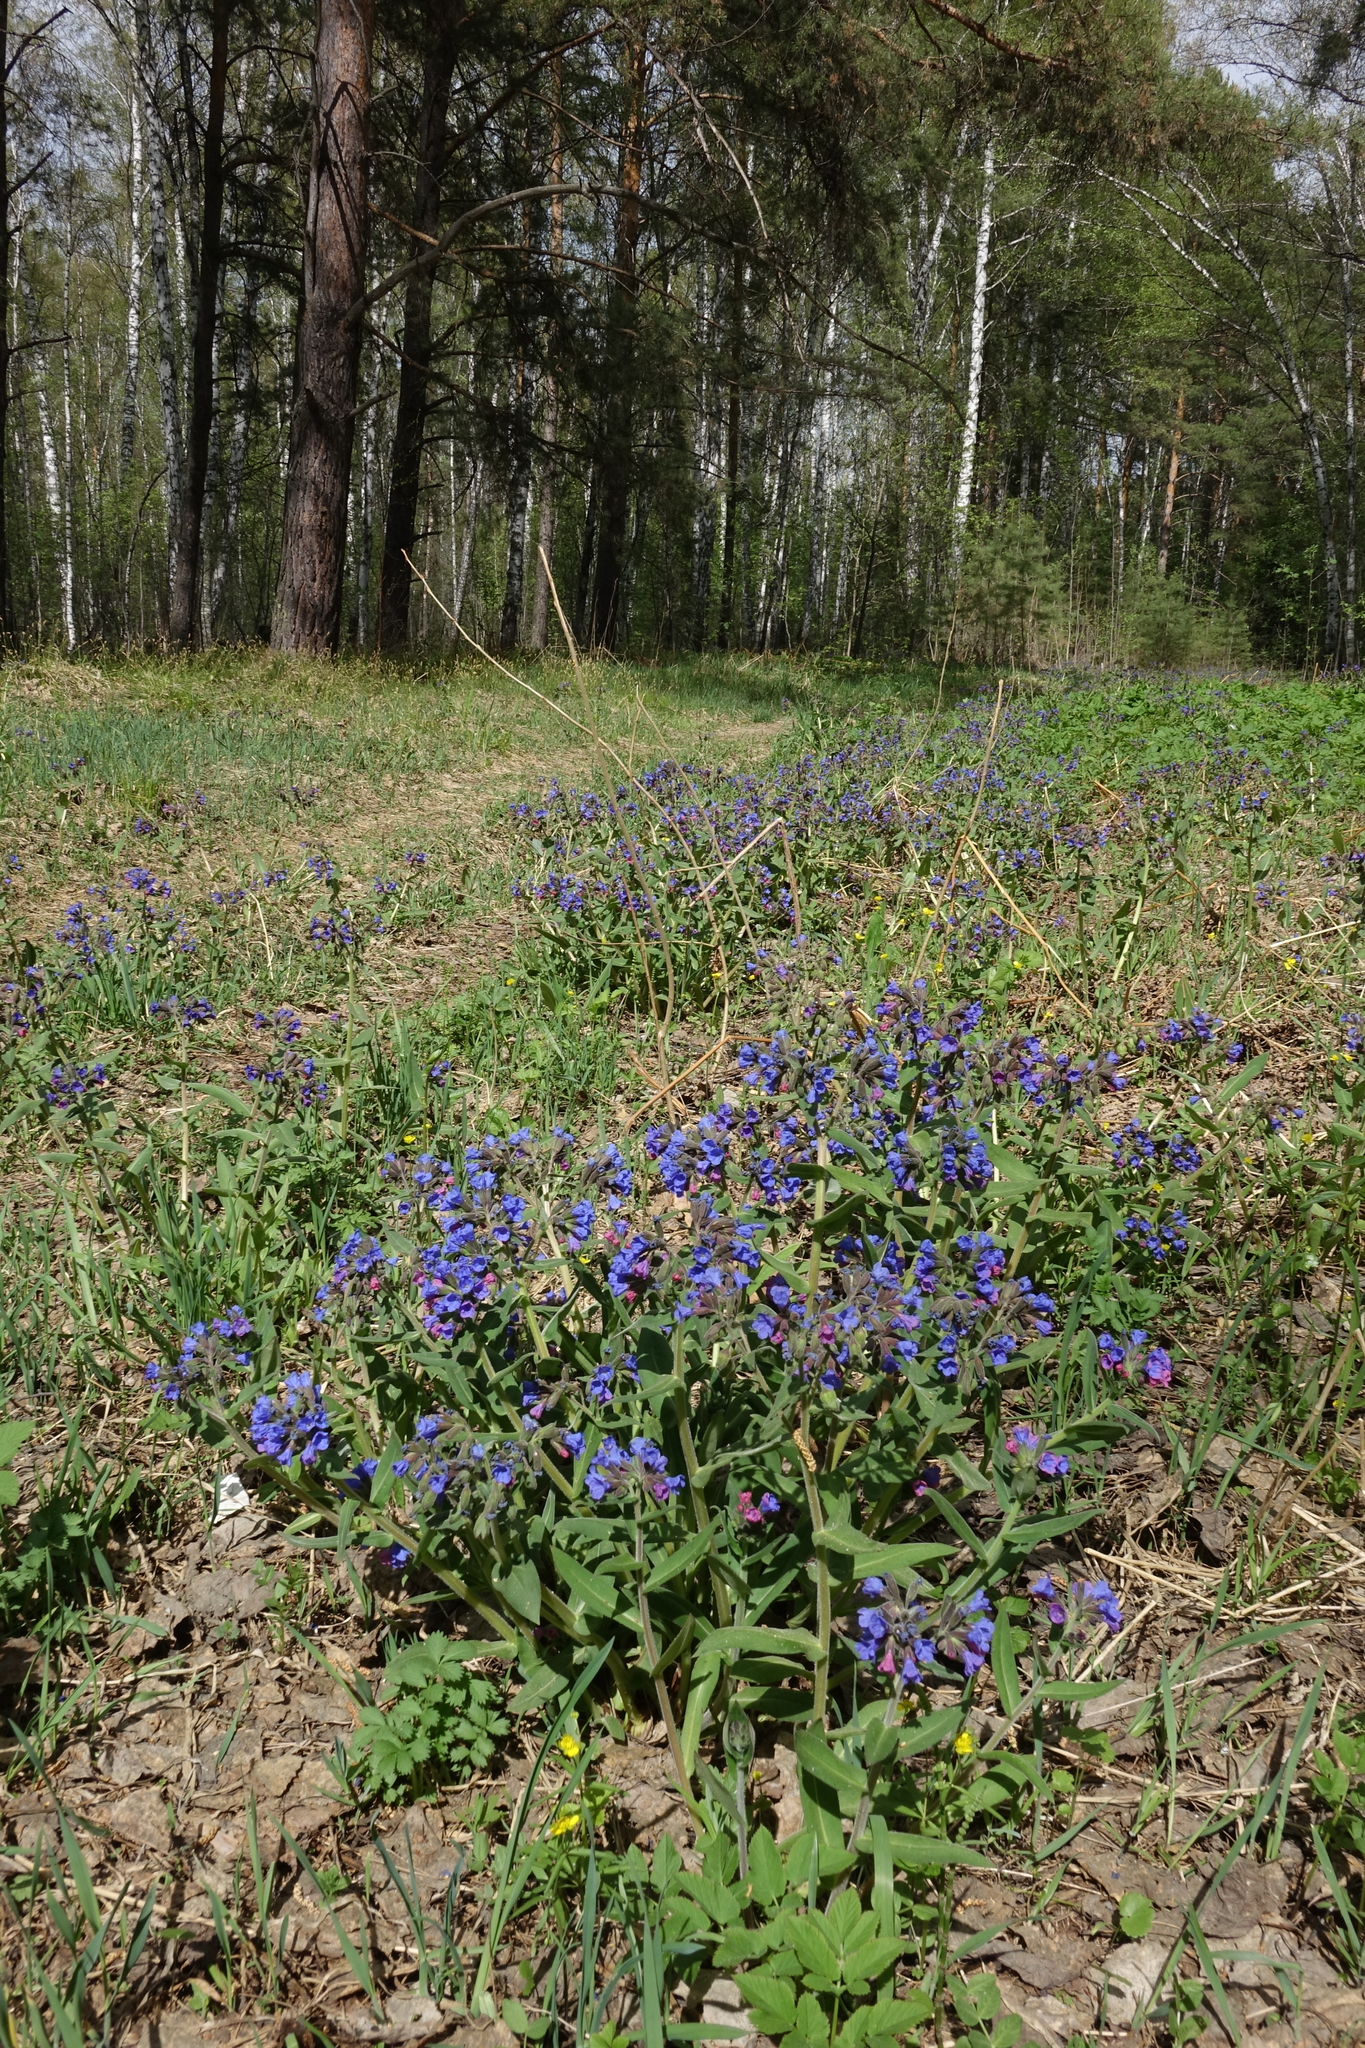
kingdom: Plantae
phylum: Tracheophyta
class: Magnoliopsida
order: Boraginales
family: Boraginaceae
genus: Pulmonaria
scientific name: Pulmonaria mollis
